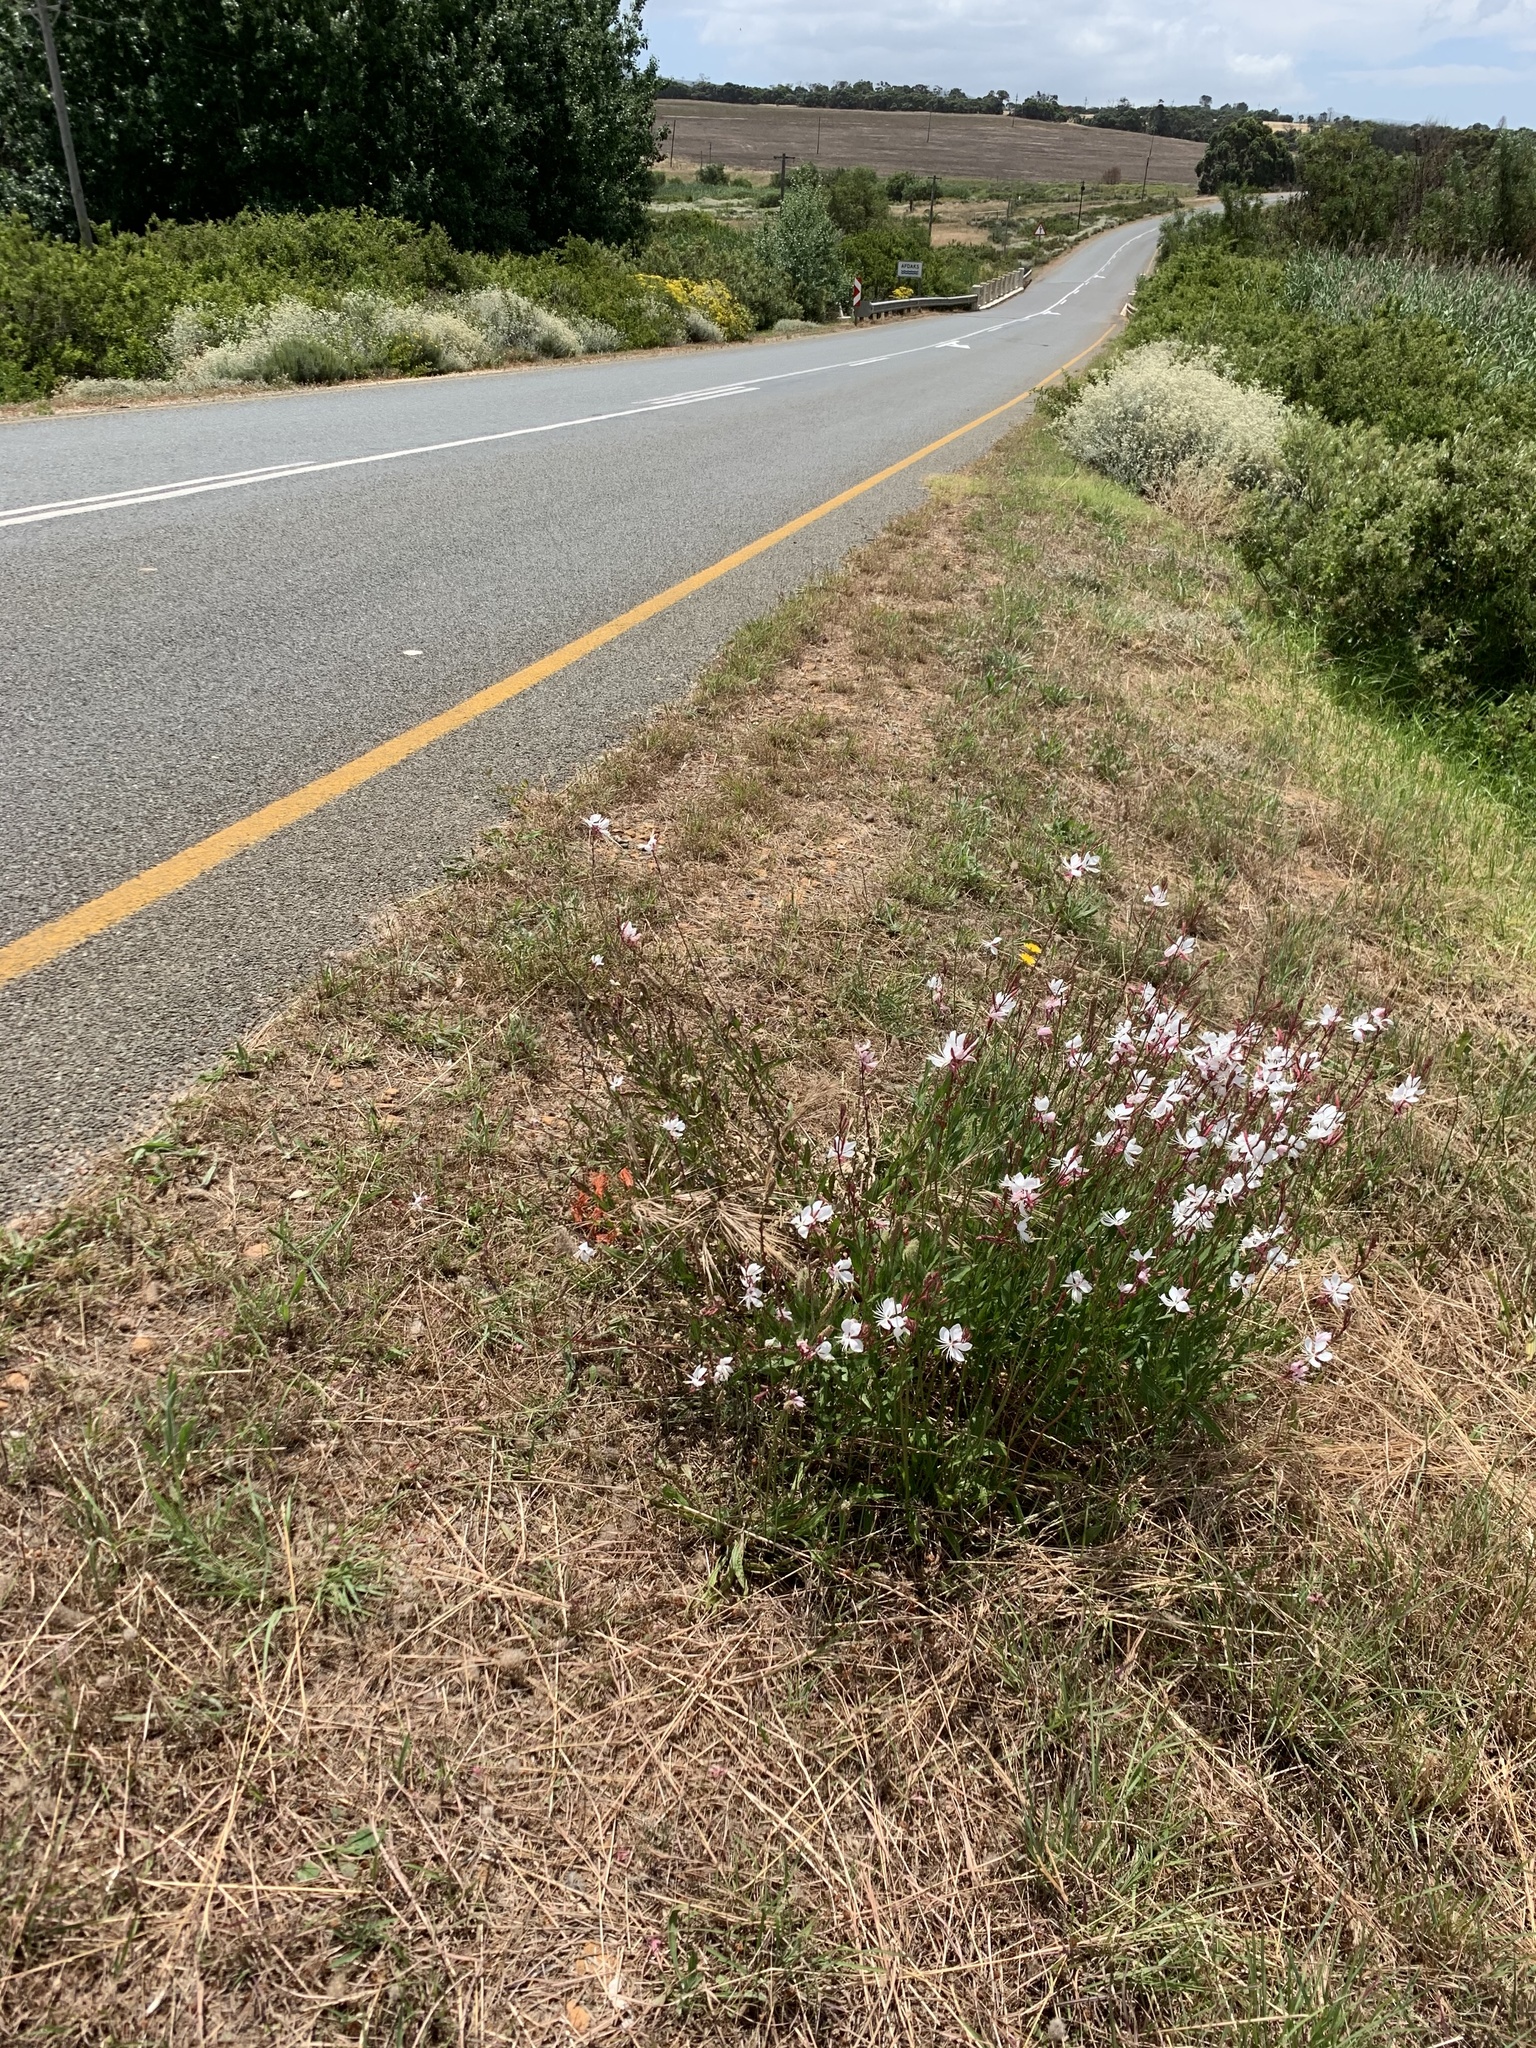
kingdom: Plantae
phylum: Tracheophyta
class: Magnoliopsida
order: Myrtales
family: Onagraceae
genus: Oenothera
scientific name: Oenothera lindheimeri
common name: Lindheimer's beeblossom
